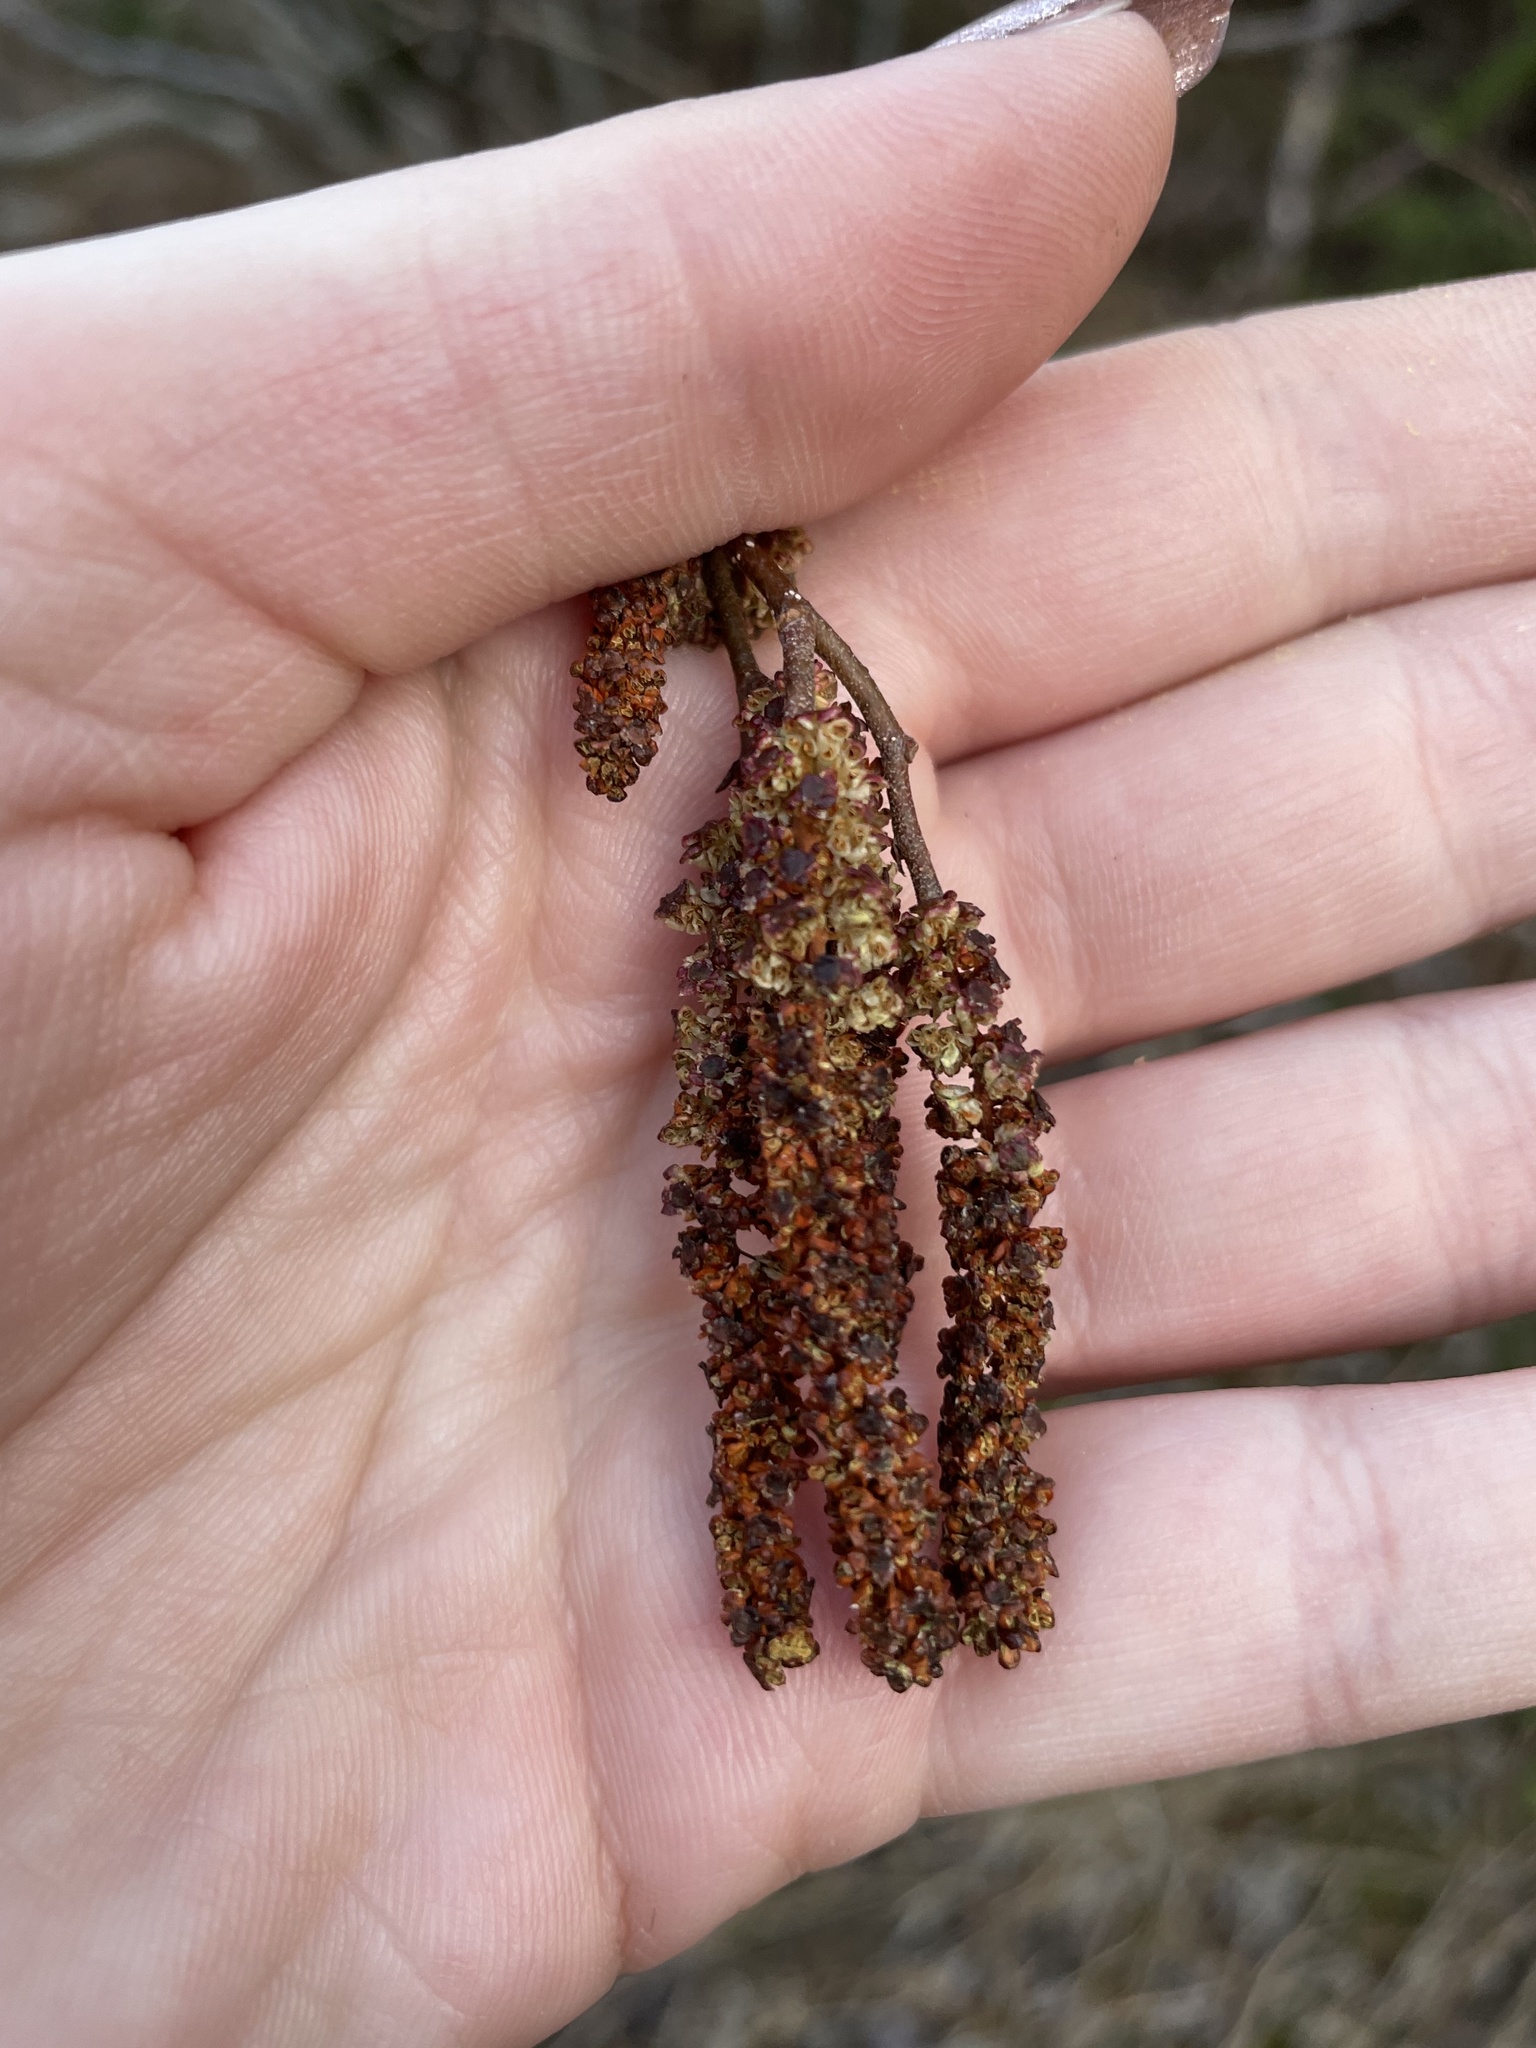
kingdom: Plantae
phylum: Tracheophyta
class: Magnoliopsida
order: Fagales
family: Betulaceae
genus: Alnus
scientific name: Alnus incana
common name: Grey alder
